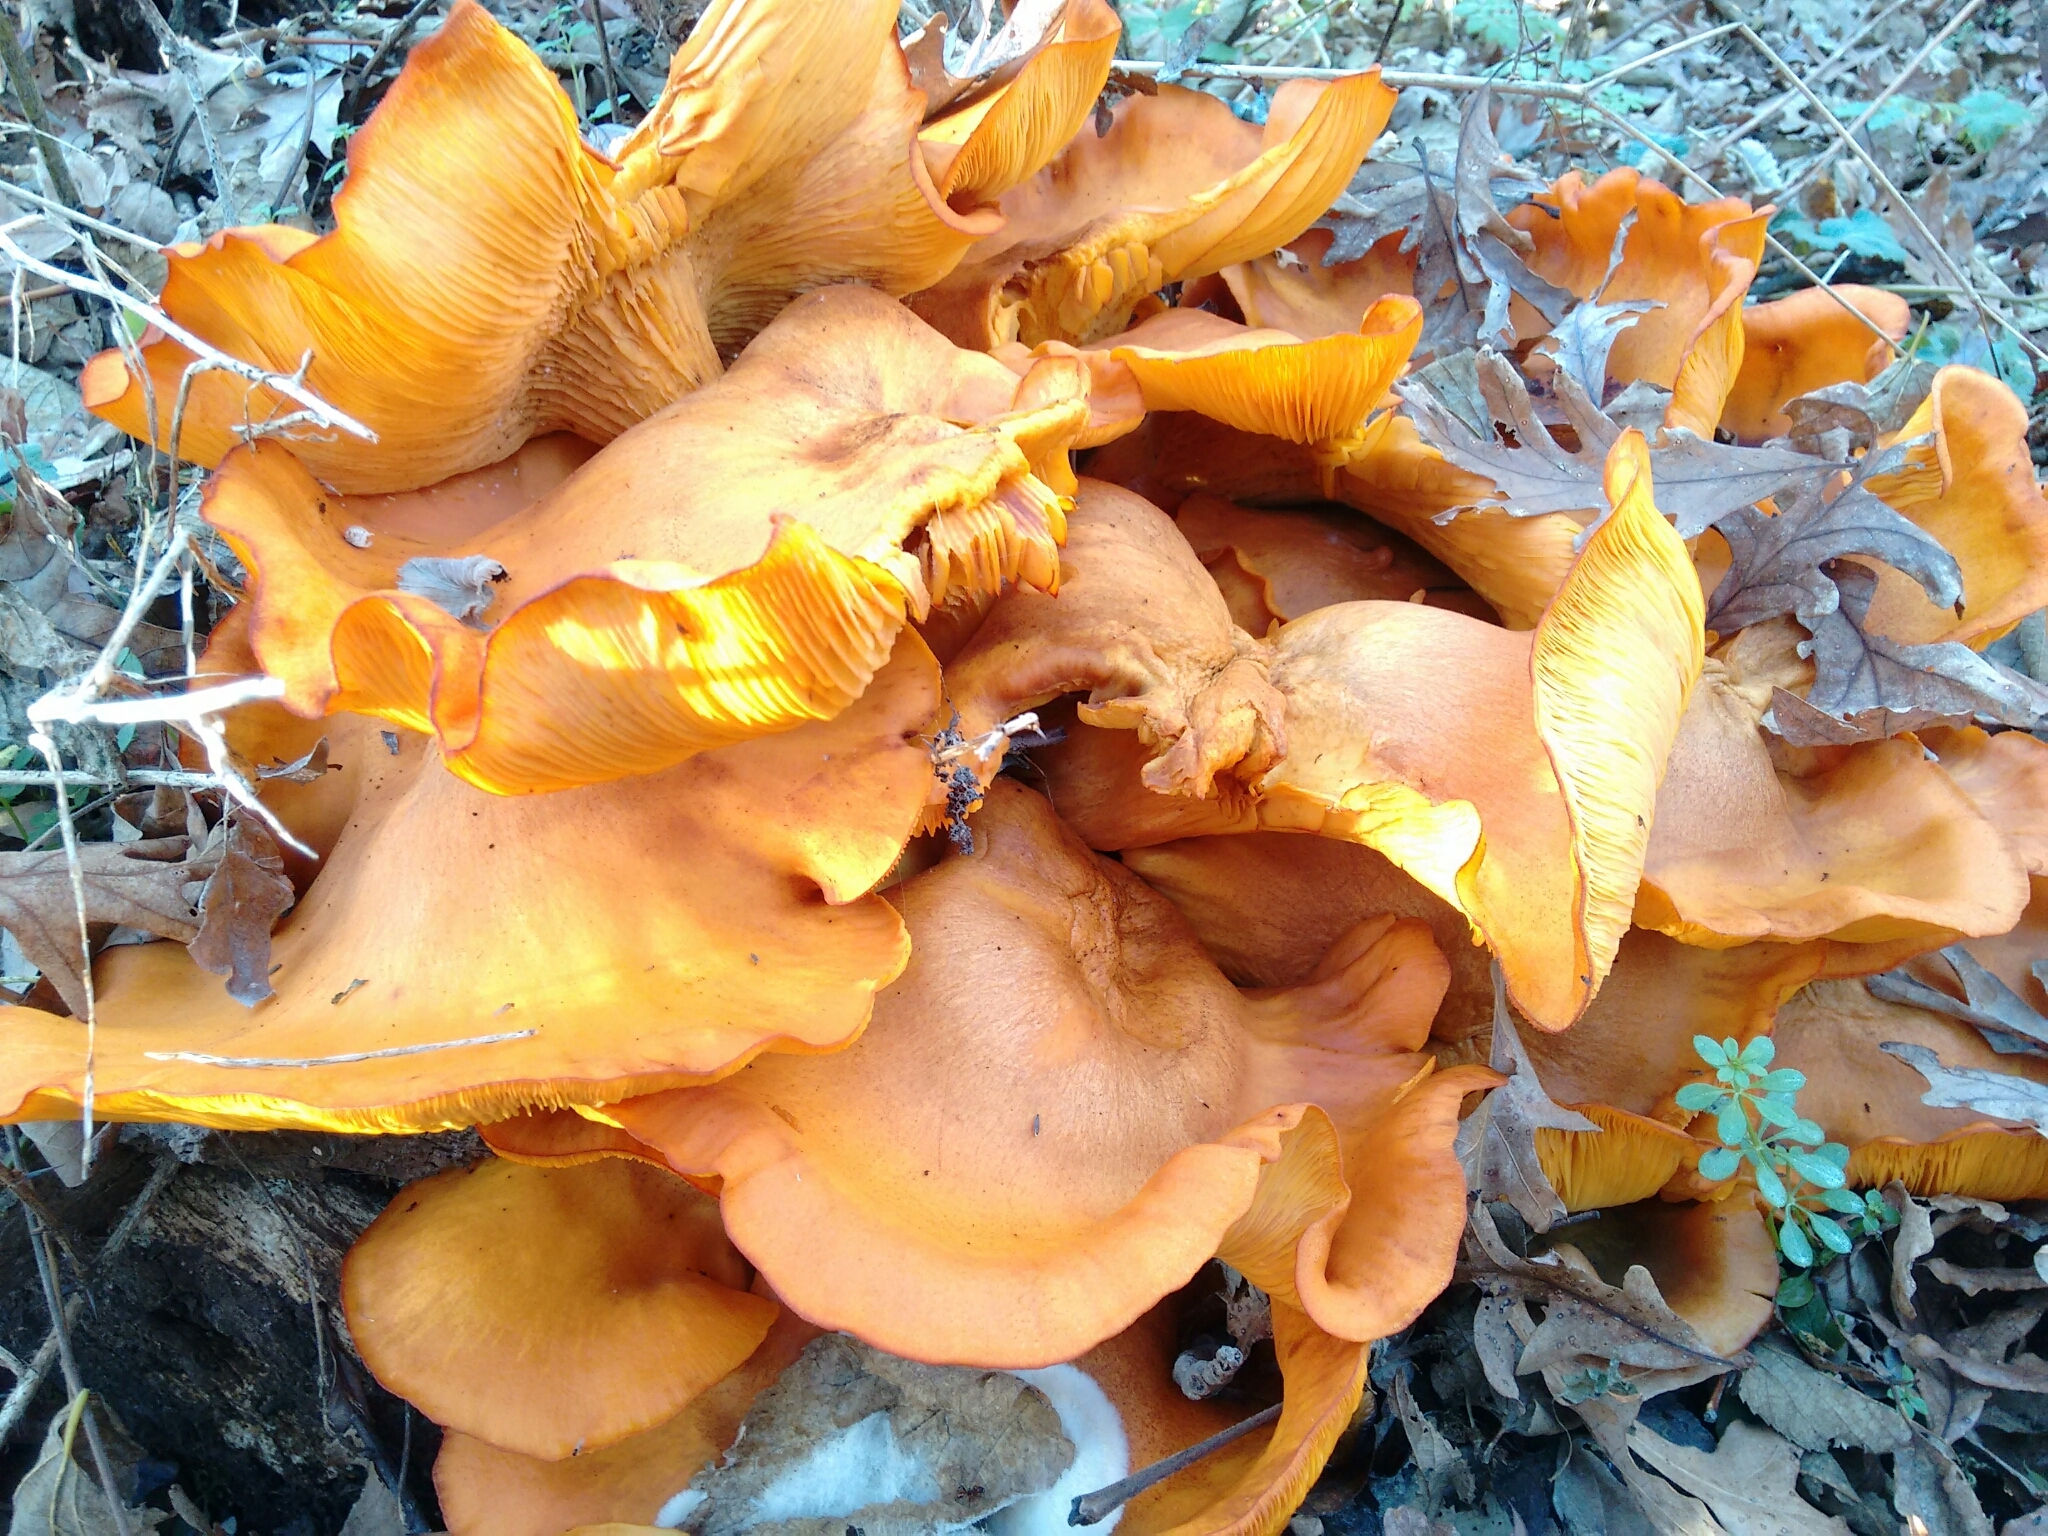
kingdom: Fungi
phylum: Basidiomycota
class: Agaricomycetes
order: Agaricales
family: Omphalotaceae
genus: Omphalotus
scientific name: Omphalotus illudens
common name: Jack o lantern
